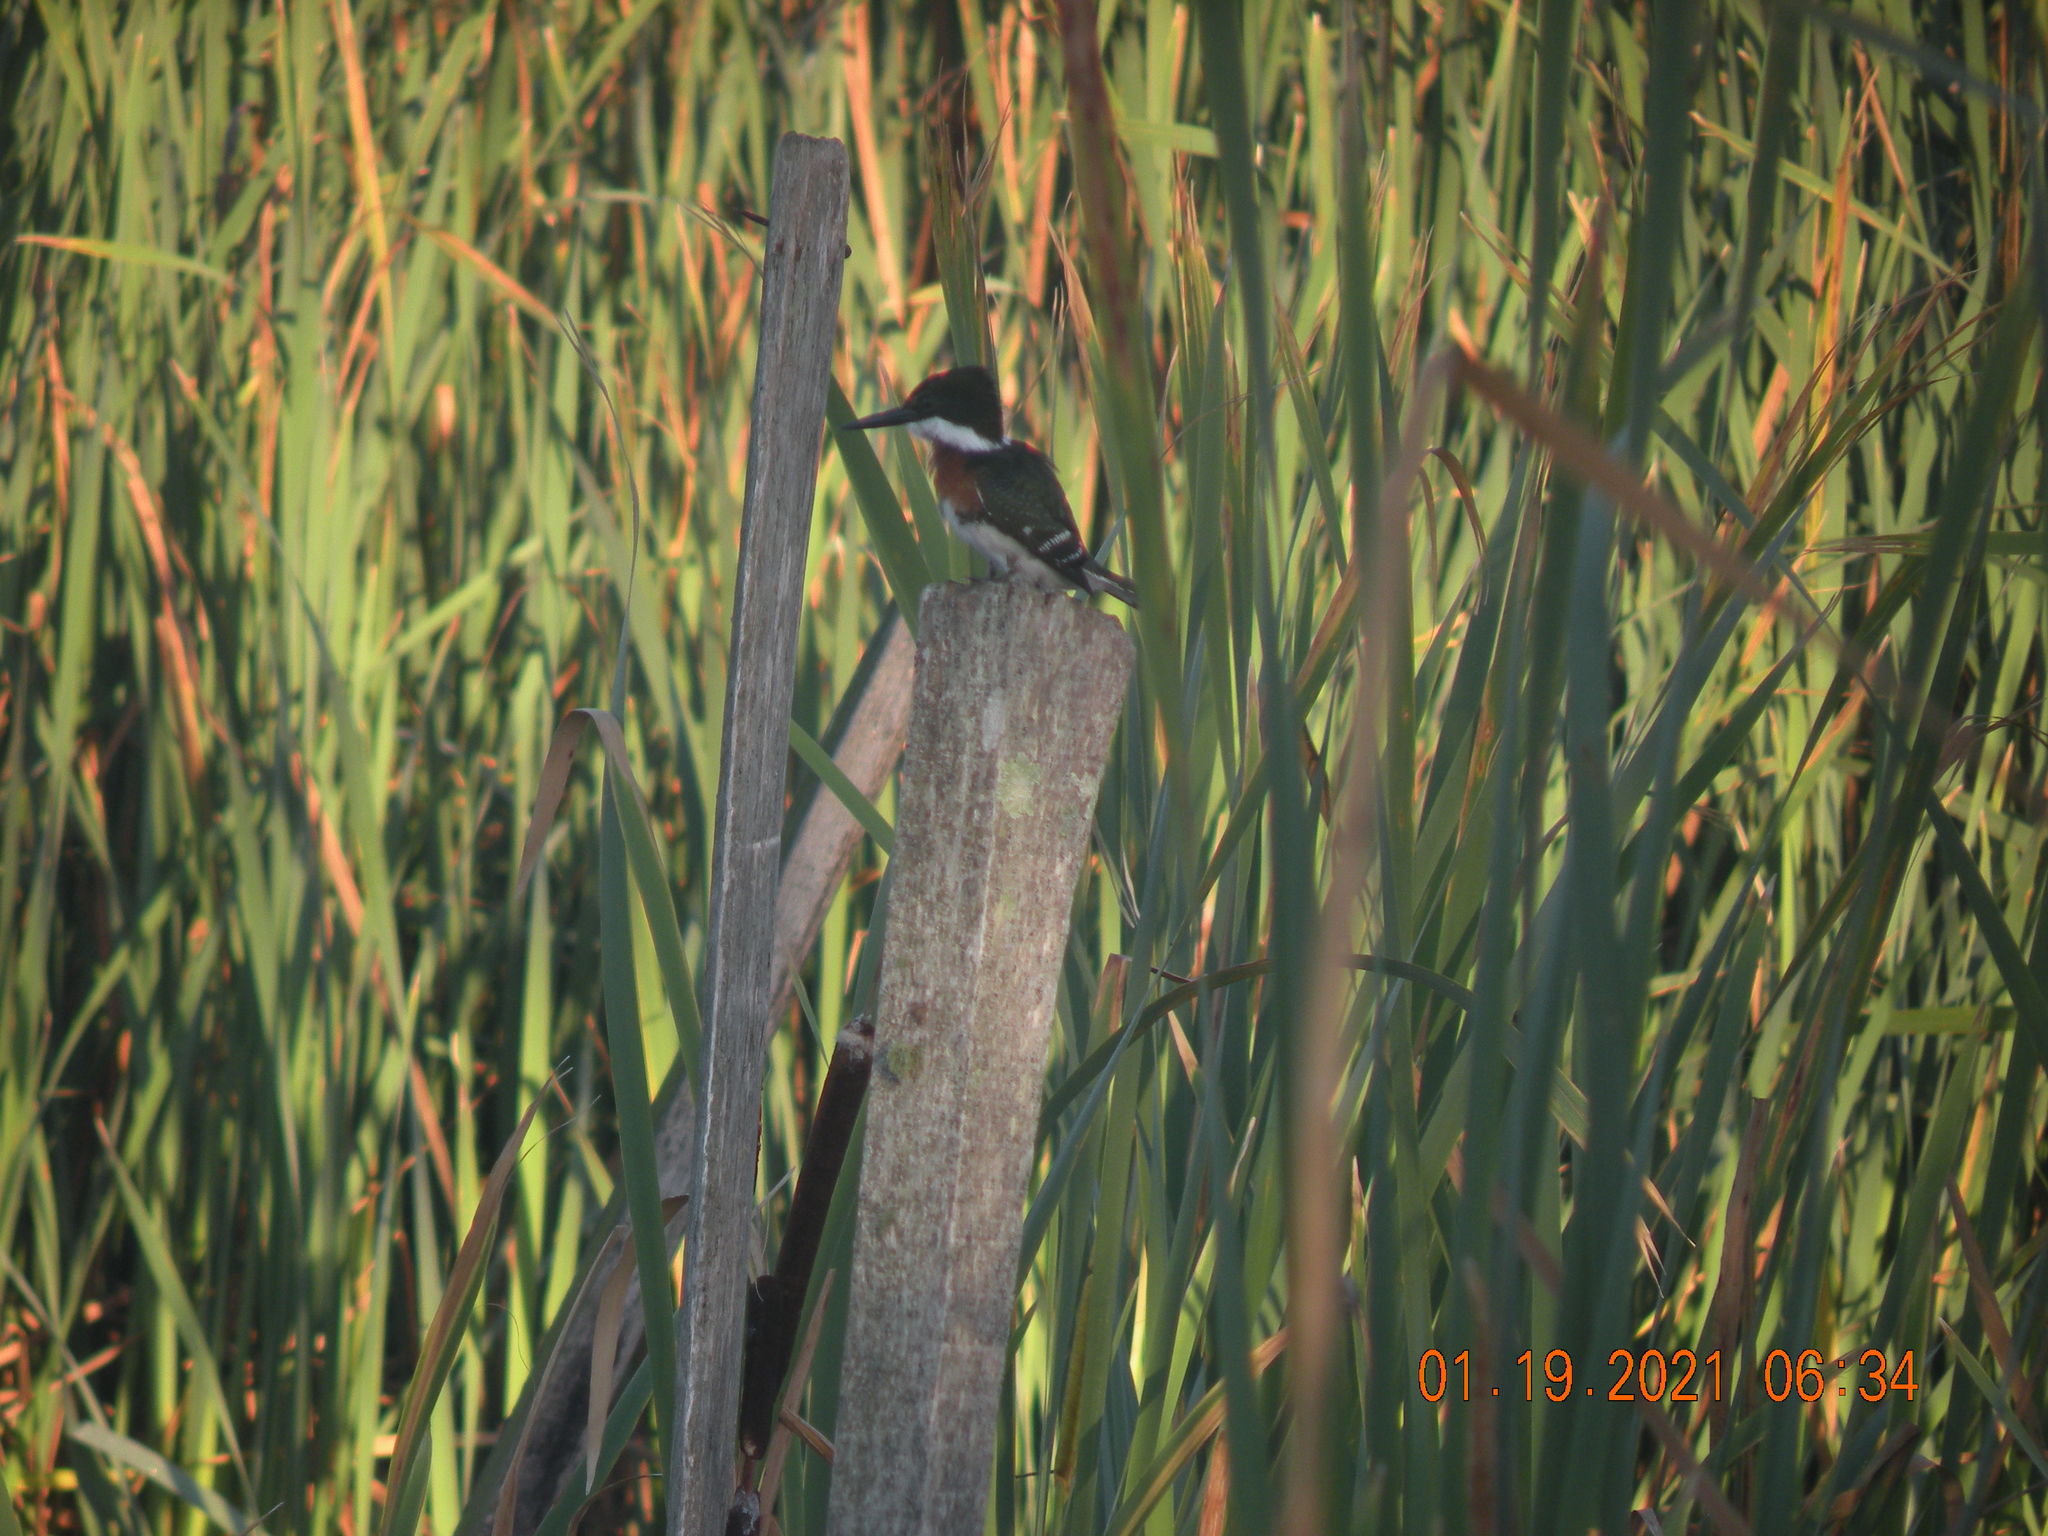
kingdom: Animalia
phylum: Chordata
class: Aves
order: Coraciiformes
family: Alcedinidae
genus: Chloroceryle
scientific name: Chloroceryle americana
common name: Green kingfisher
